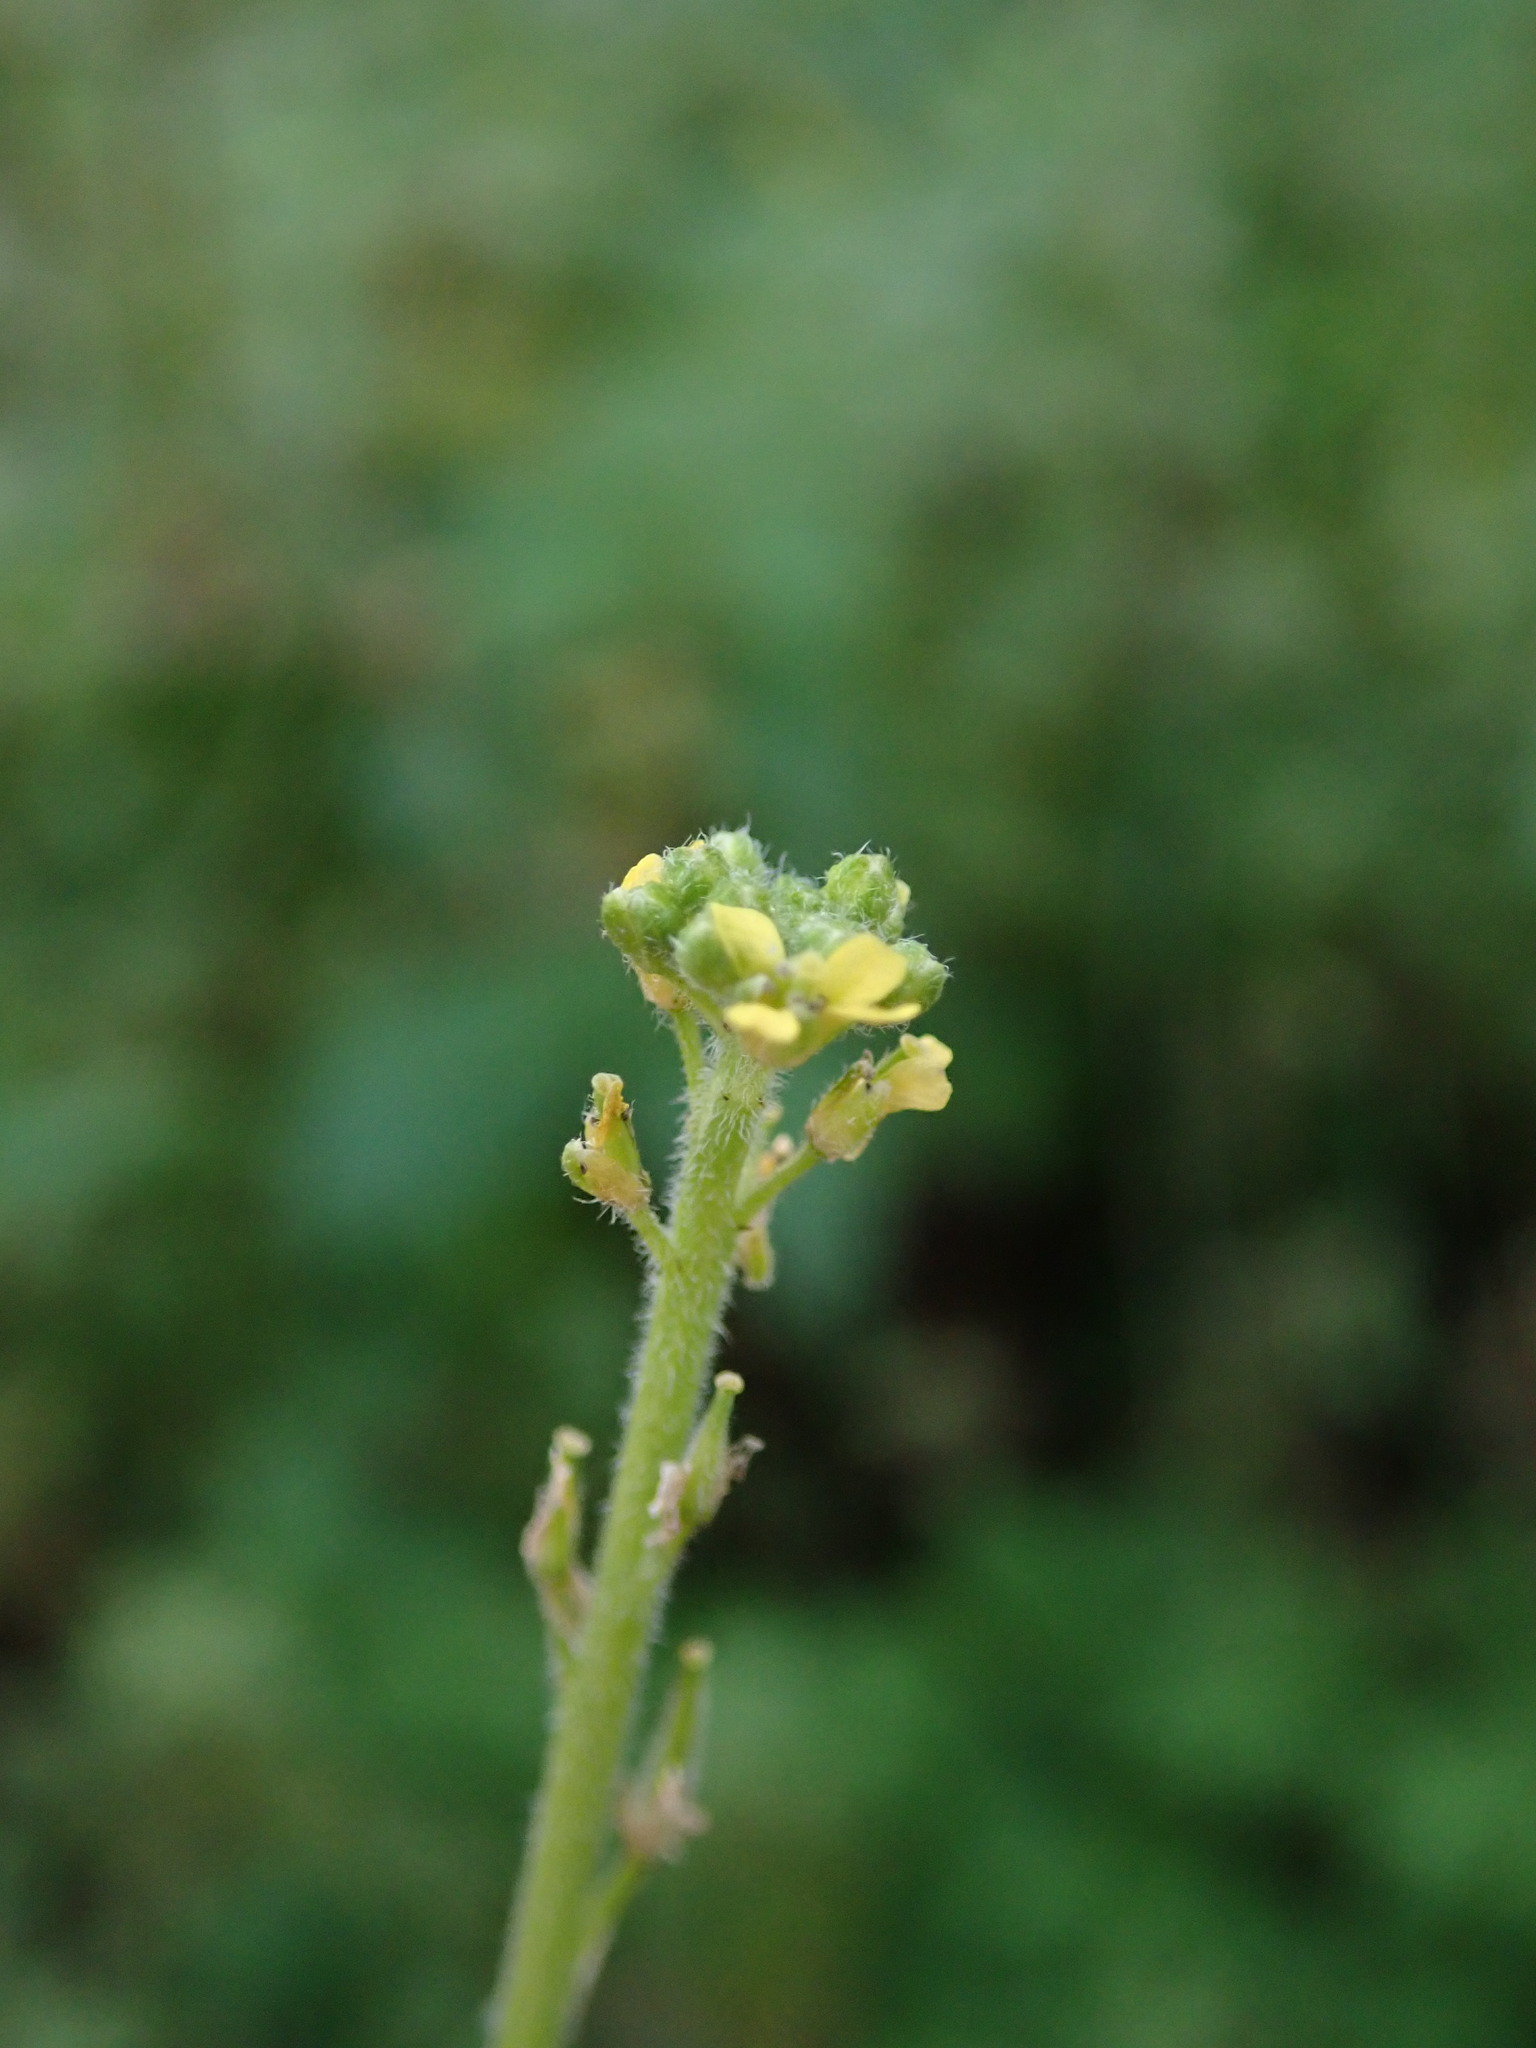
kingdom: Plantae
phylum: Tracheophyta
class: Magnoliopsida
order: Brassicales
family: Brassicaceae
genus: Sisymbrium
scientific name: Sisymbrium officinale
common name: Hedge mustard
